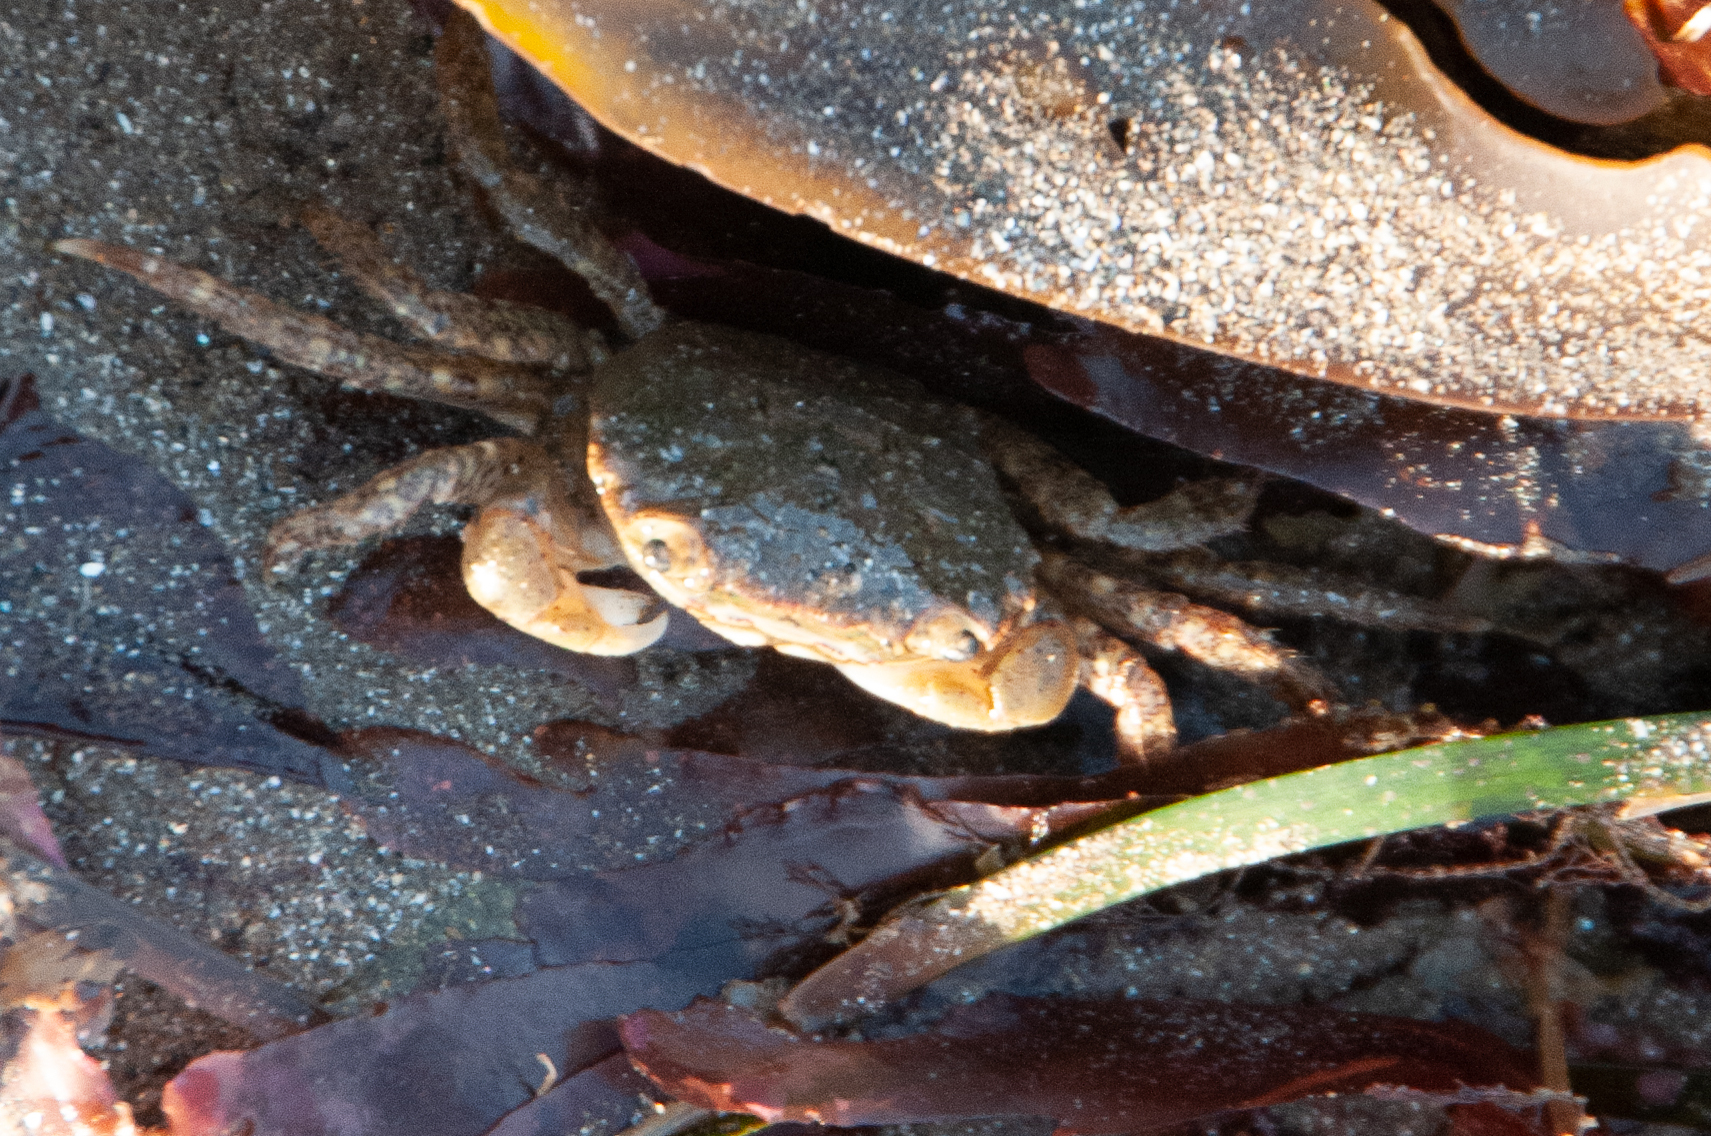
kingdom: Animalia
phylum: Arthropoda
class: Malacostraca
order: Decapoda
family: Varunidae
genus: Hemigrapsus
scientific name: Hemigrapsus oregonensis
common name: Yellow shore crab
